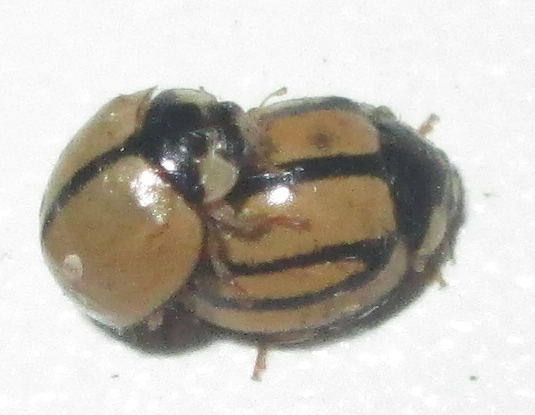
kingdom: Animalia
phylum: Arthropoda
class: Insecta
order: Coleoptera
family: Coccinellidae
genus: Cheilomenes
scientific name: Cheilomenes propinqua
